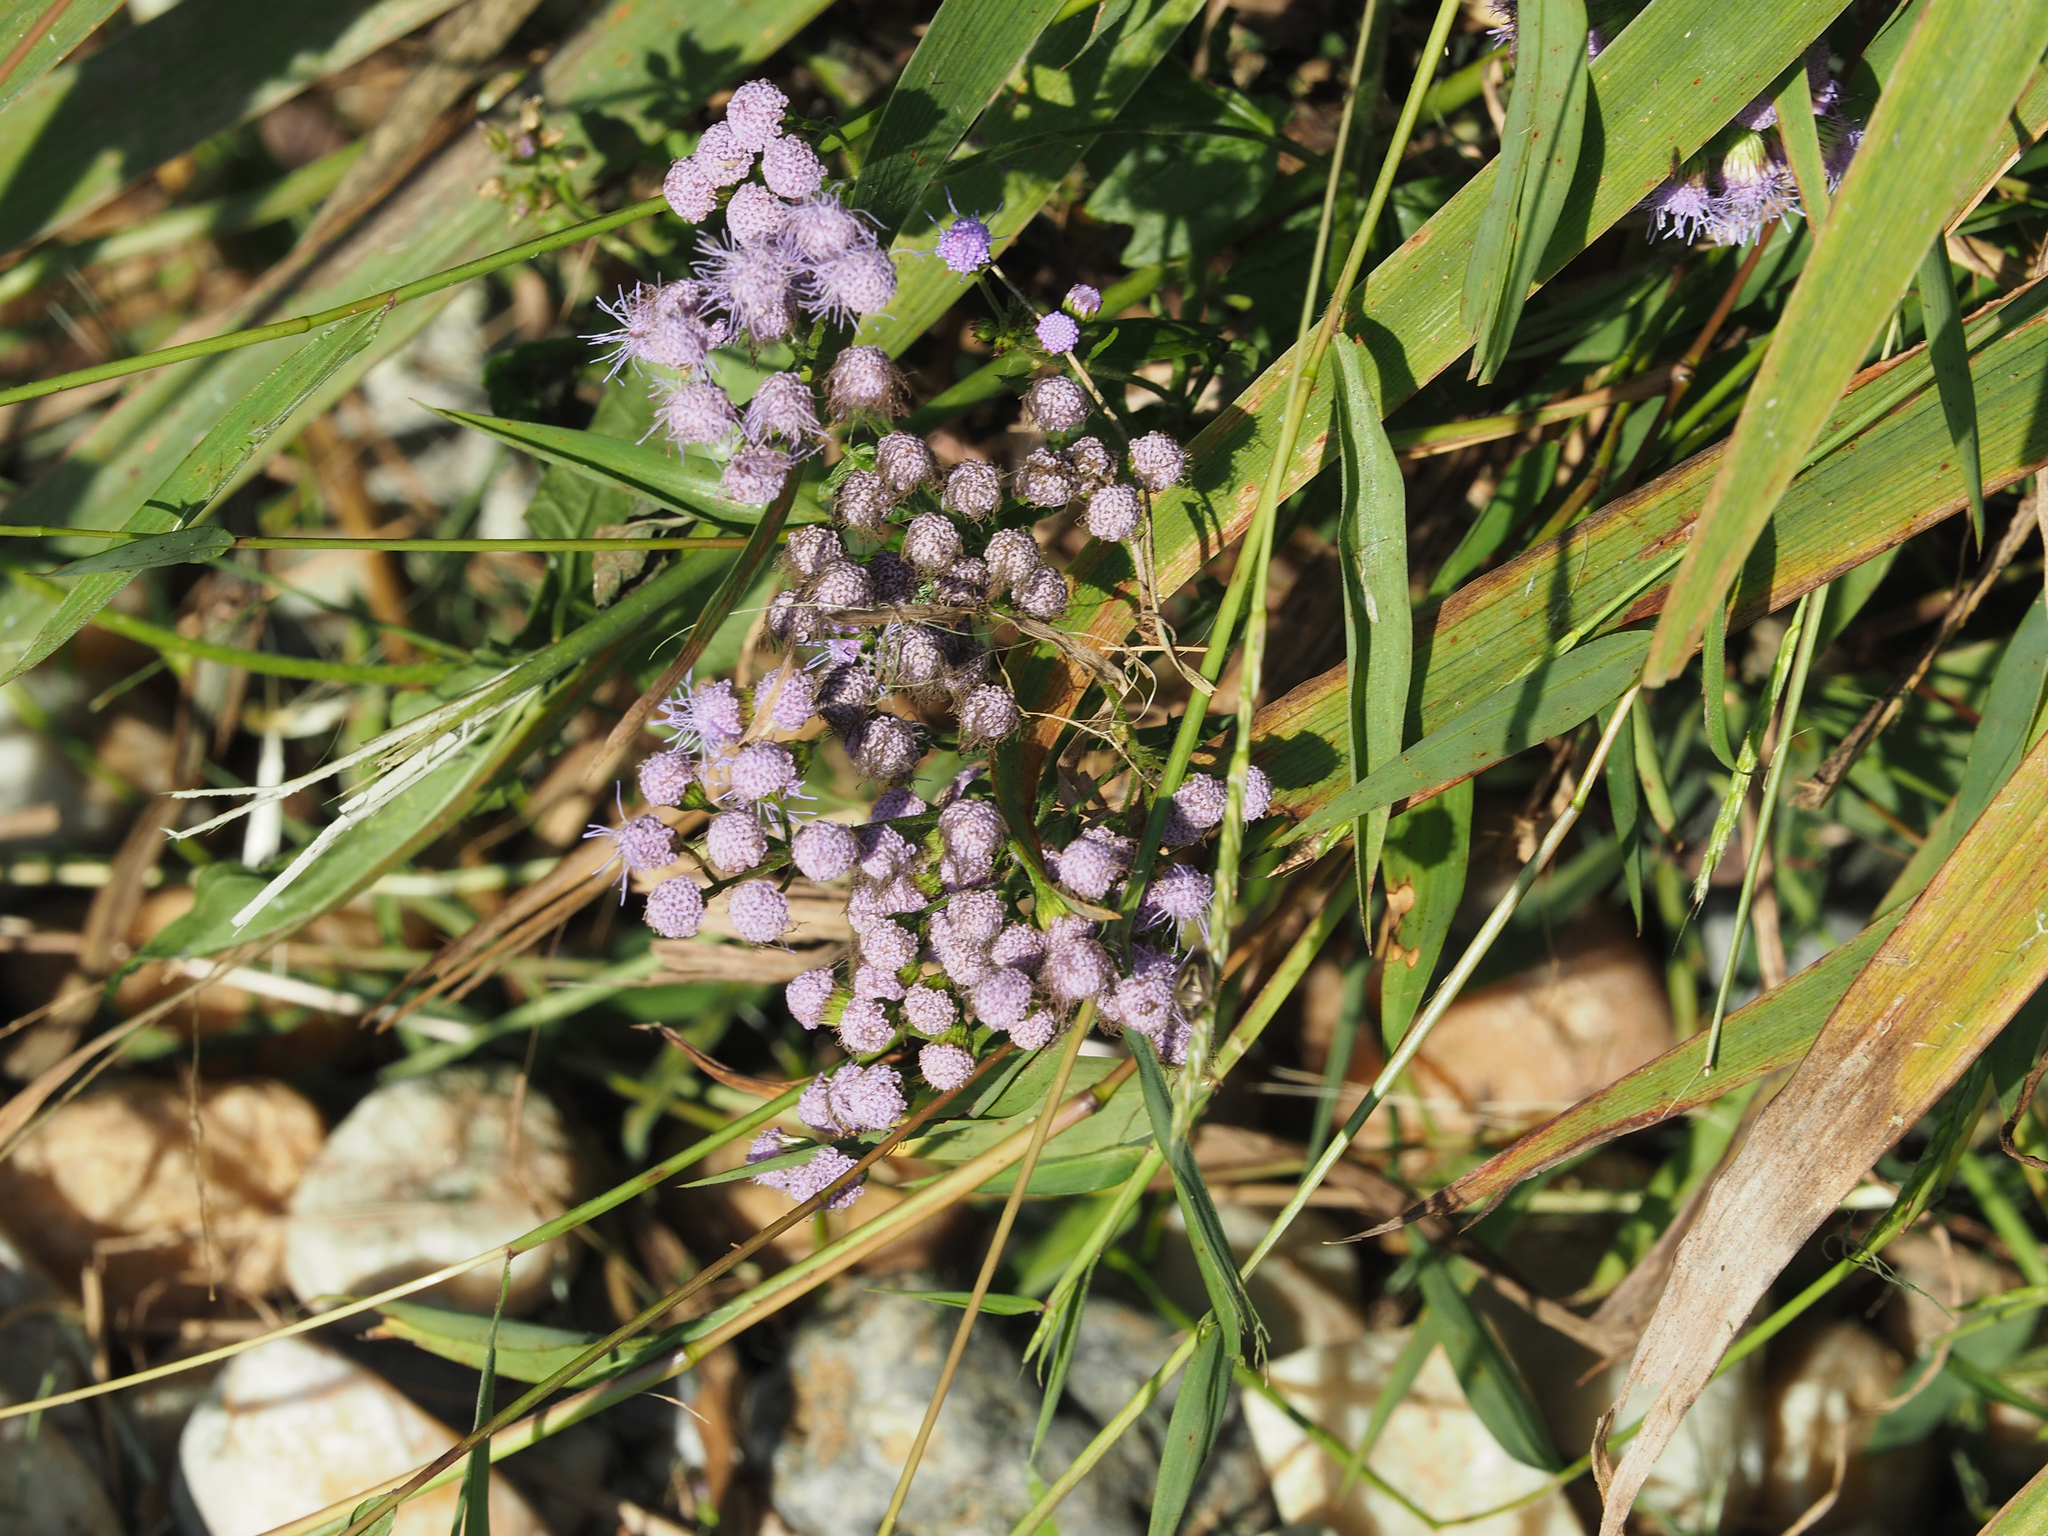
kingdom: Plantae
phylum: Tracheophyta
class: Magnoliopsida
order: Asterales
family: Asteraceae
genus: Conoclinium
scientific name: Conoclinium coelestinum
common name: Blue mistflower
